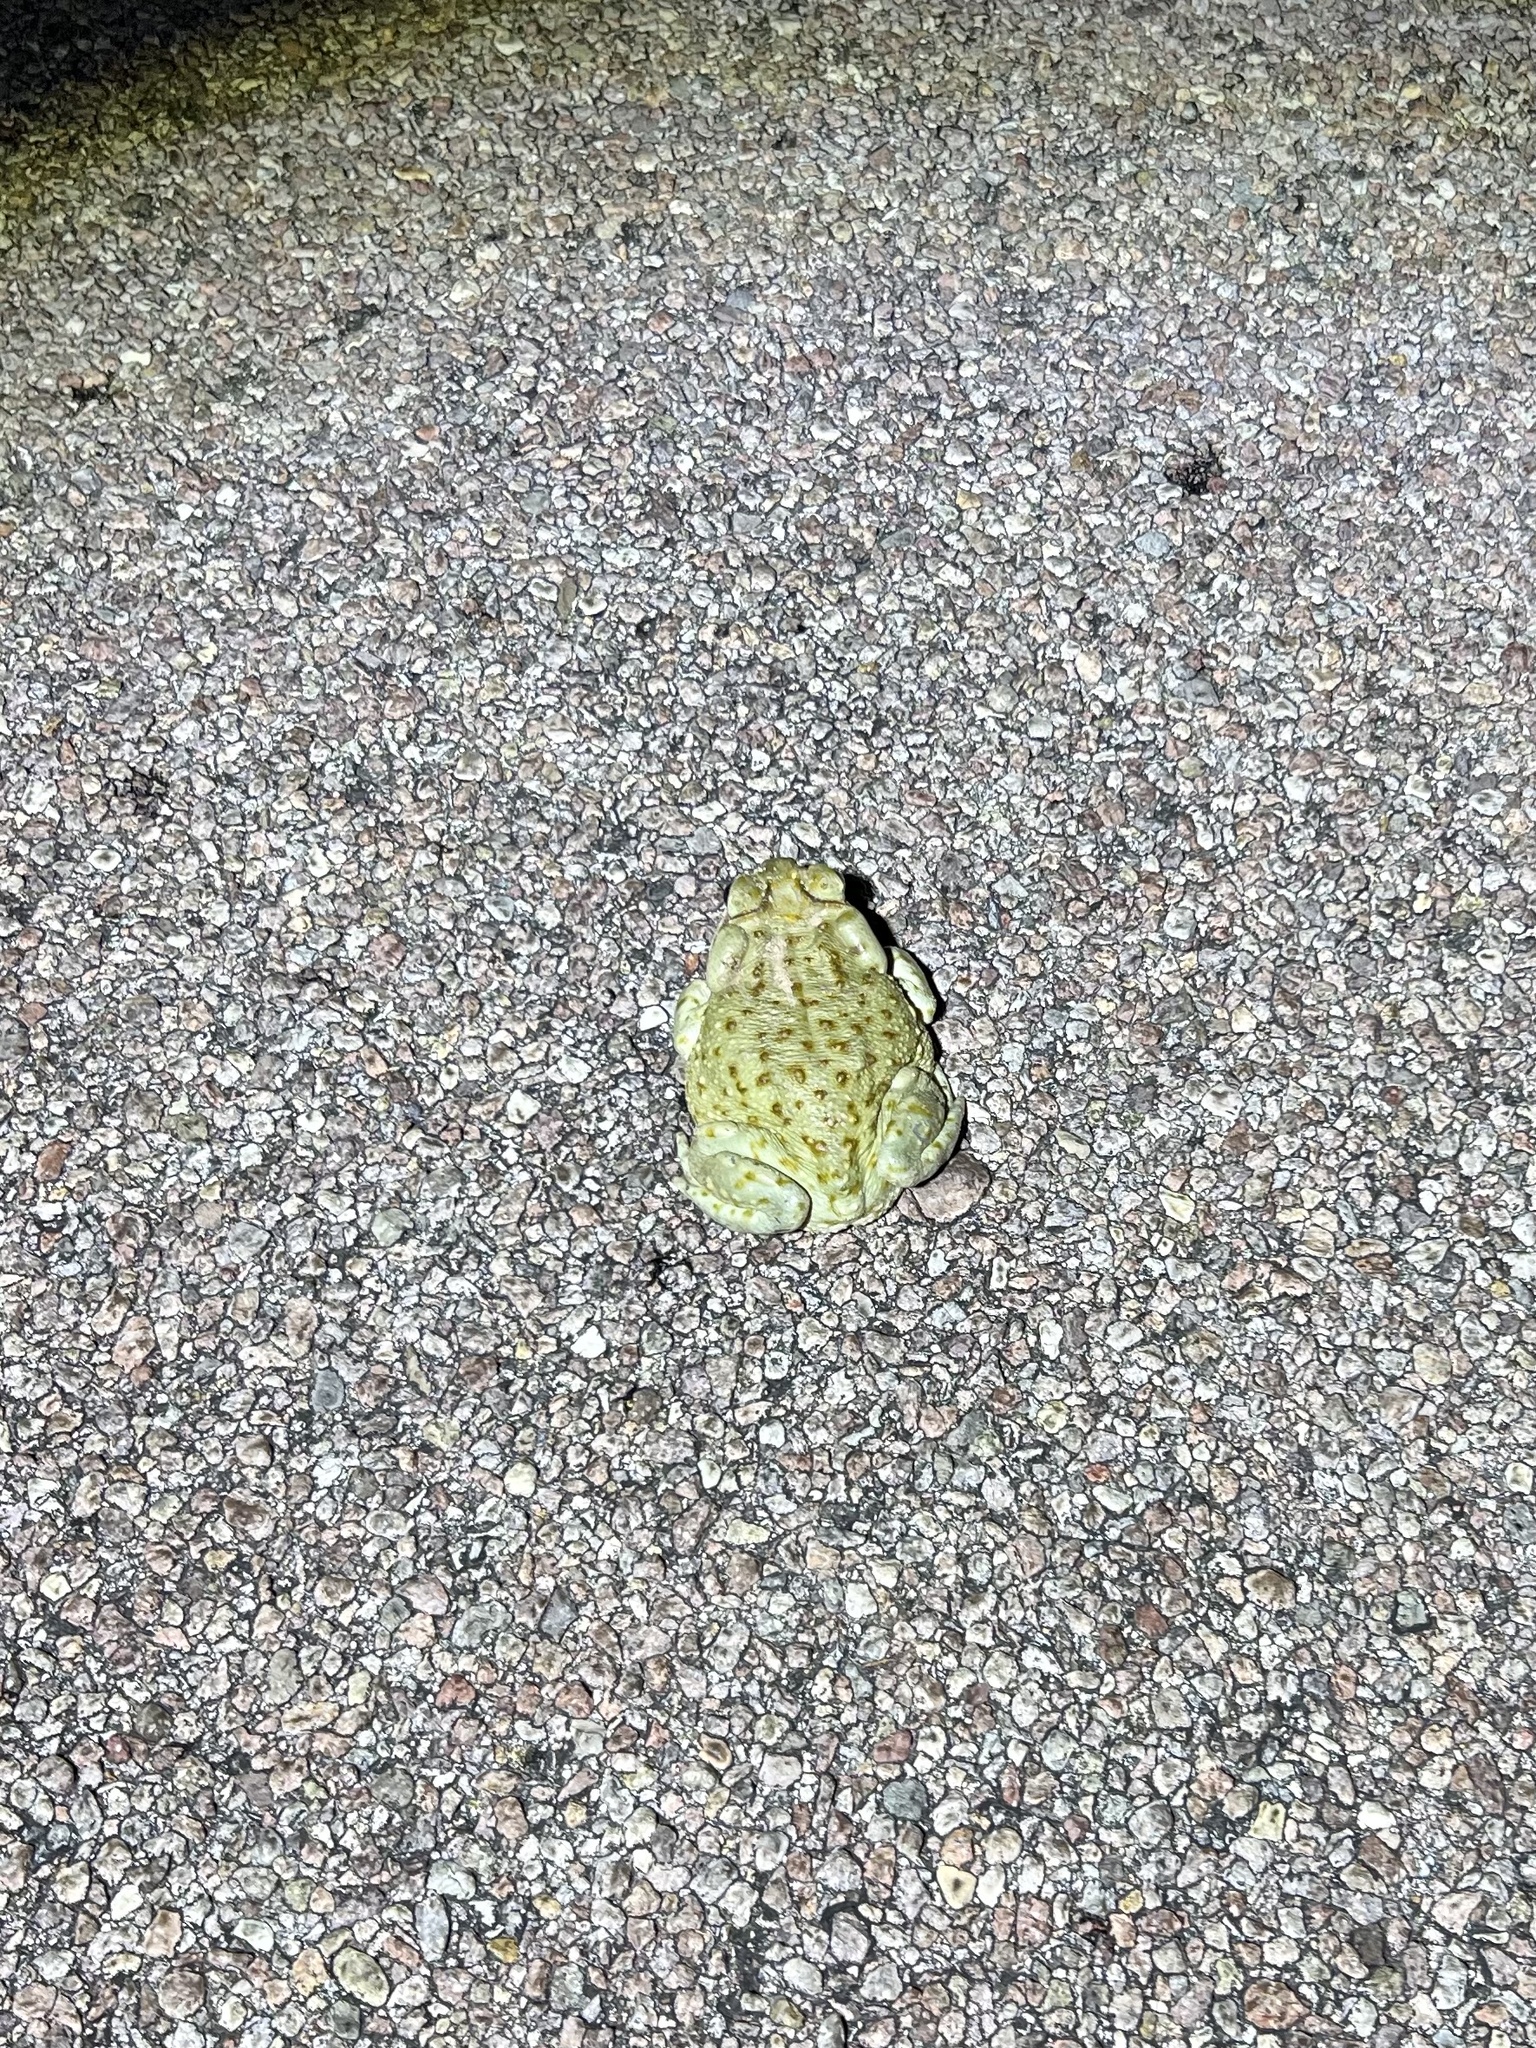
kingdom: Animalia
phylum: Chordata
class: Amphibia
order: Anura
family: Bufonidae
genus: Incilius
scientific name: Incilius alvarius
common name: Sonoran desert toad
